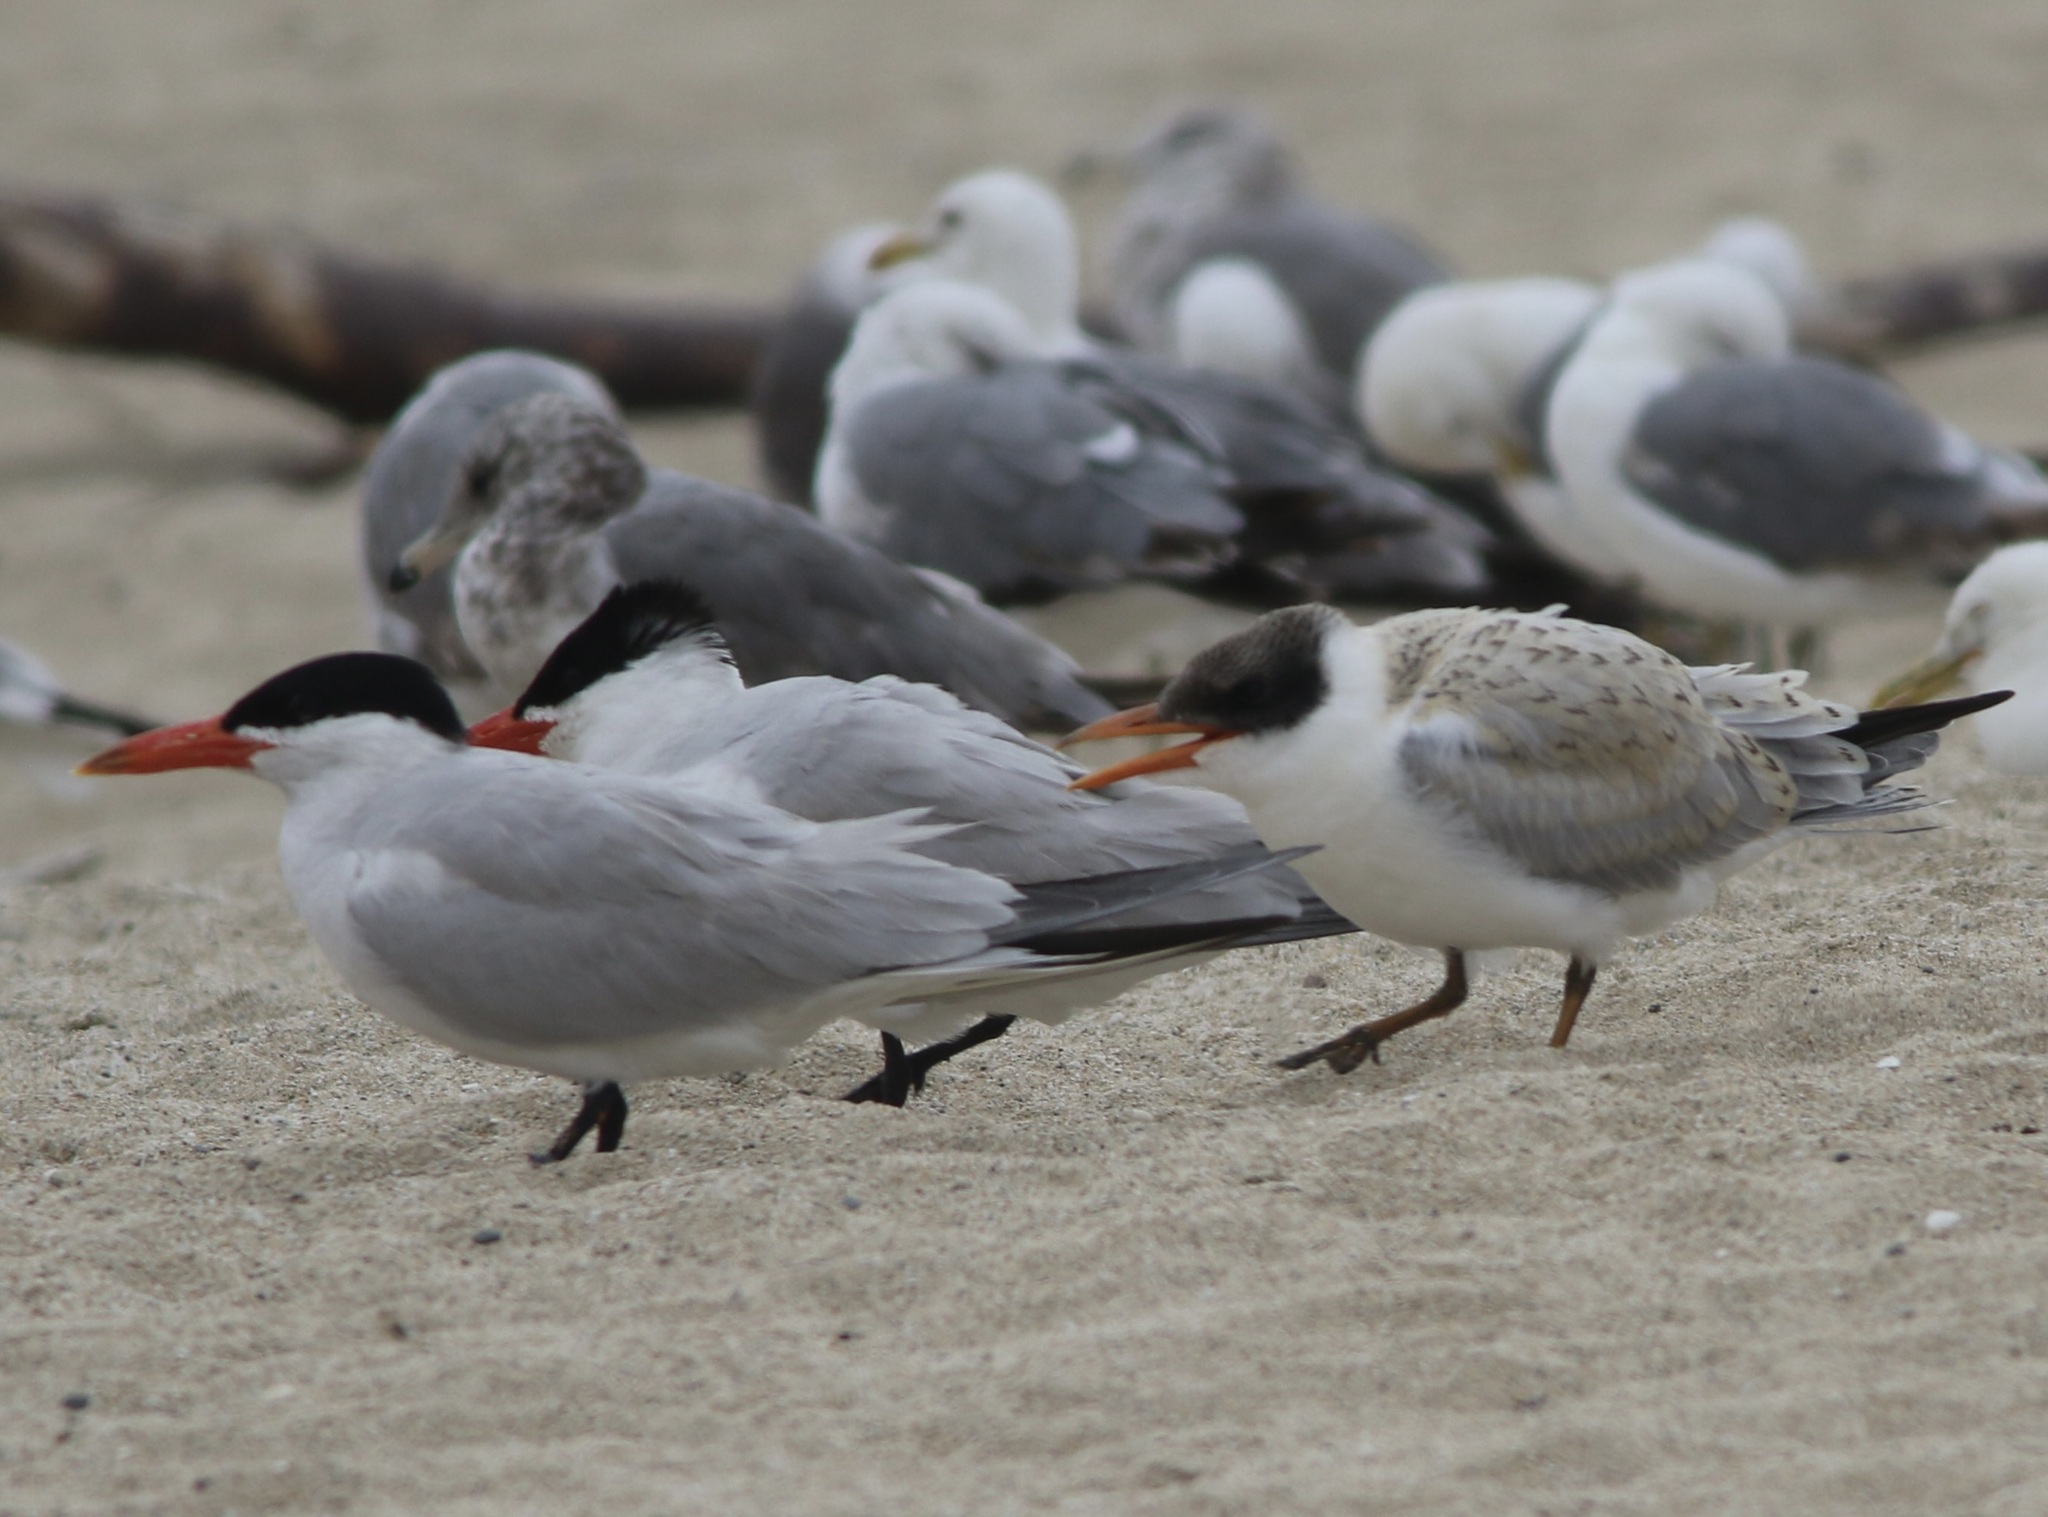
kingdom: Animalia
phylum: Chordata
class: Aves
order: Charadriiformes
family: Laridae
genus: Hydroprogne
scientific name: Hydroprogne caspia
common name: Caspian tern
